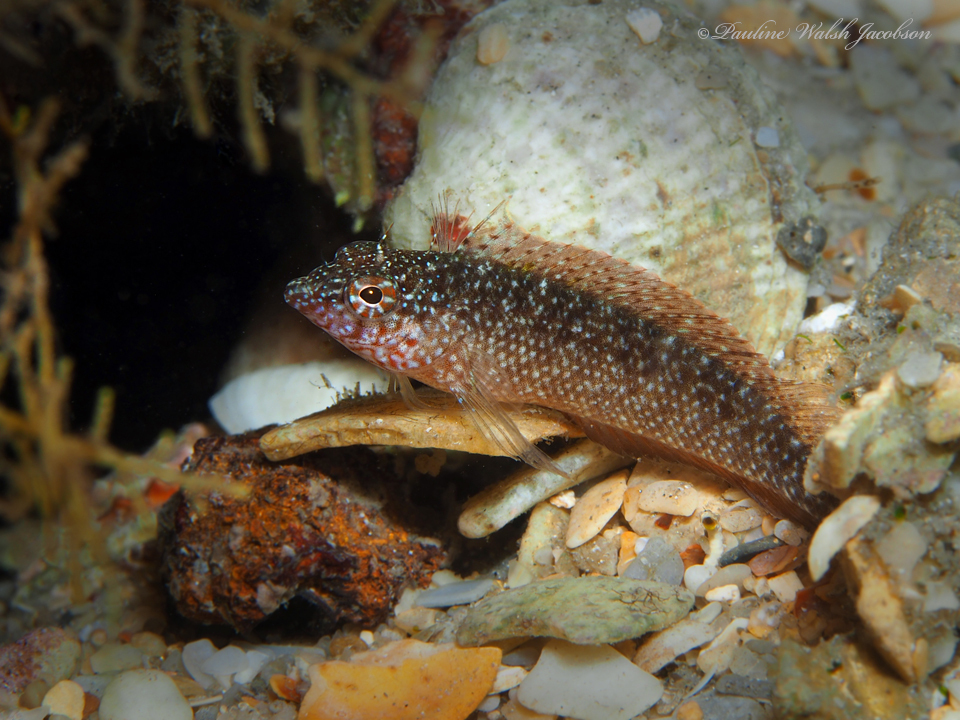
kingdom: Animalia
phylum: Chordata
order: Perciformes
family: Labrisomidae
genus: Malacoctenus
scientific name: Malacoctenus macropus
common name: Rosy blenny
